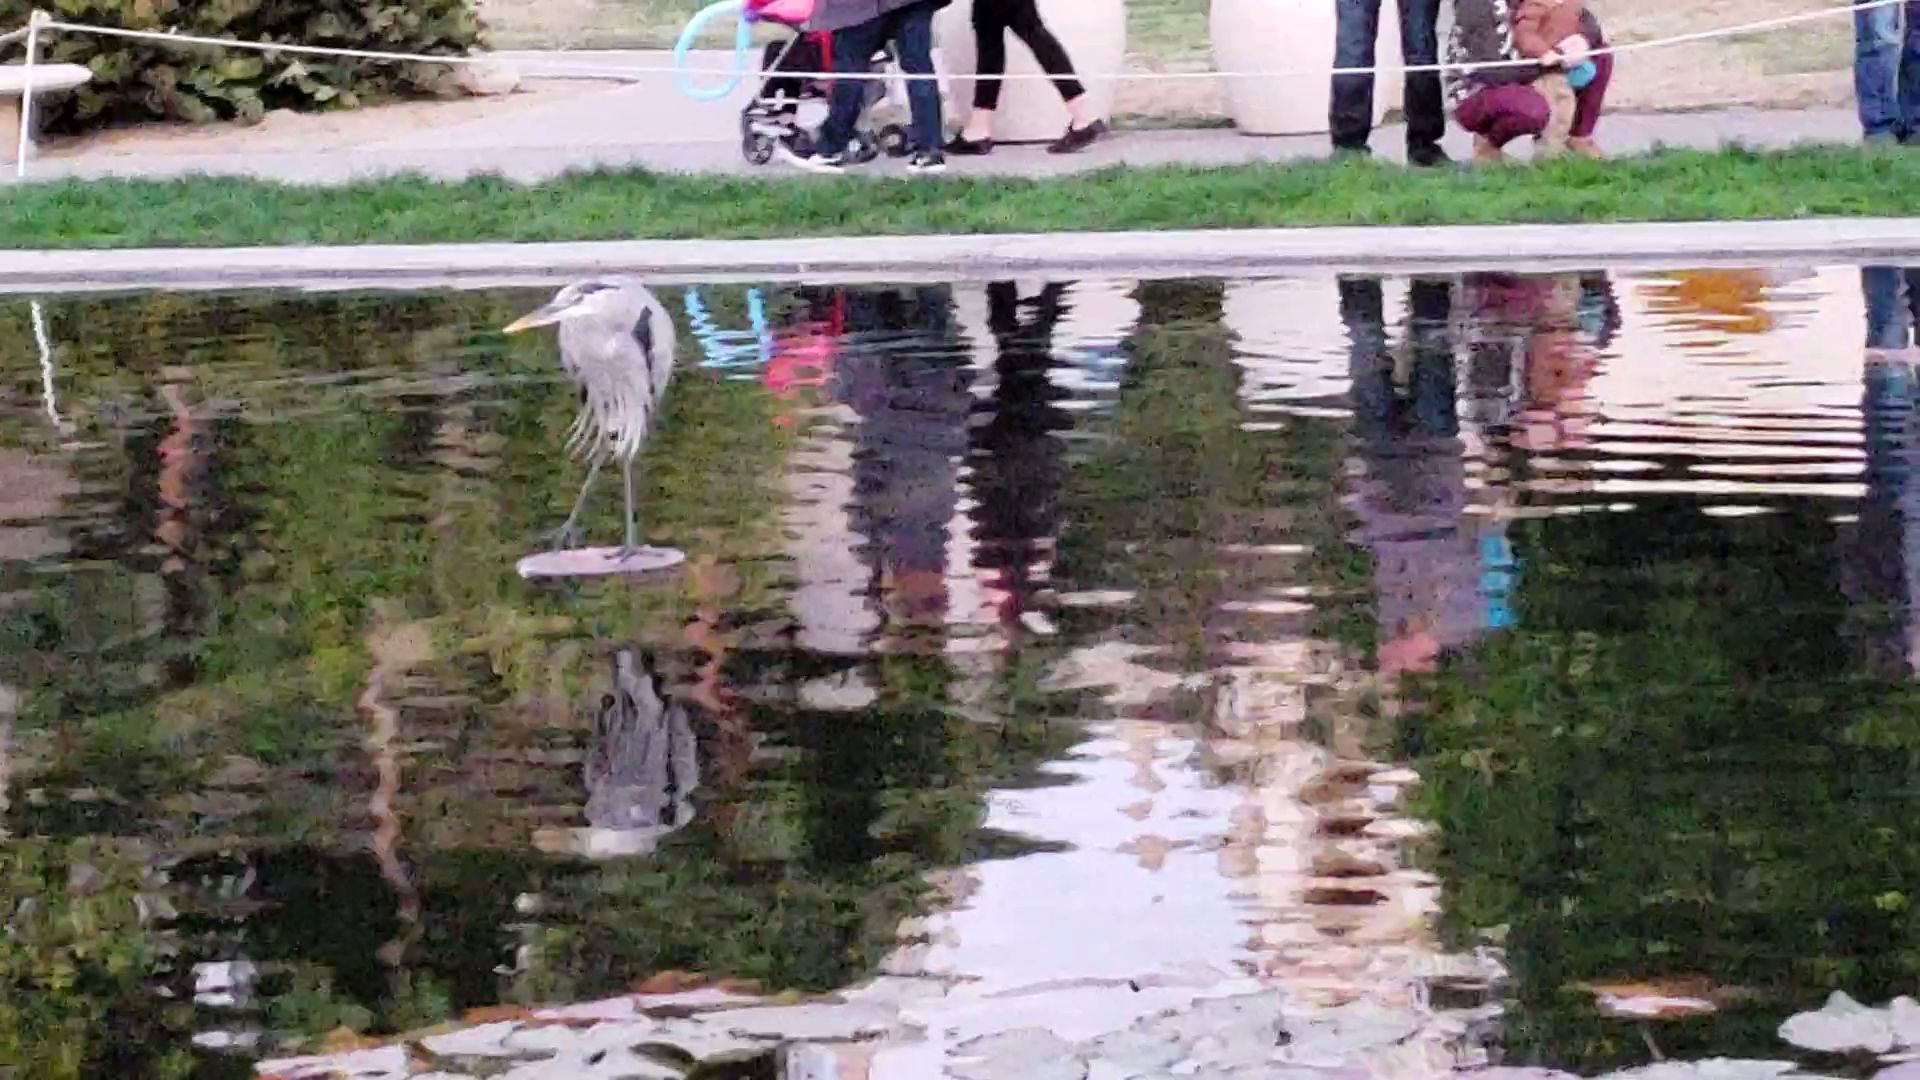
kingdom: Animalia
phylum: Chordata
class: Aves
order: Pelecaniformes
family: Ardeidae
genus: Ardea
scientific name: Ardea herodias
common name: Great blue heron
